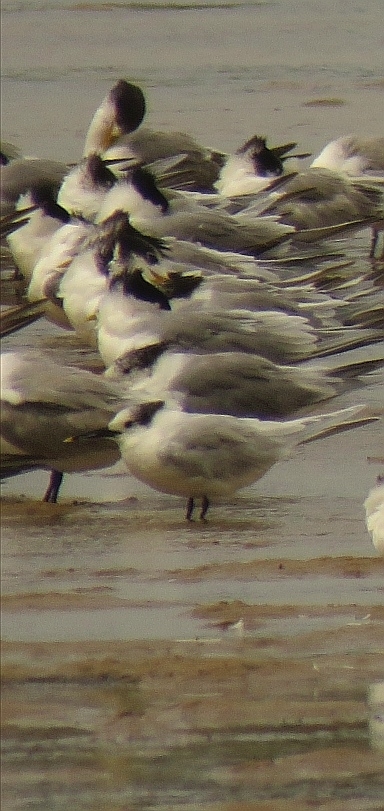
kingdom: Animalia
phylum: Chordata
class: Aves
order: Charadriiformes
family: Laridae
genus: Thalasseus
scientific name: Thalasseus sandvicensis
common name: Sandwich tern
